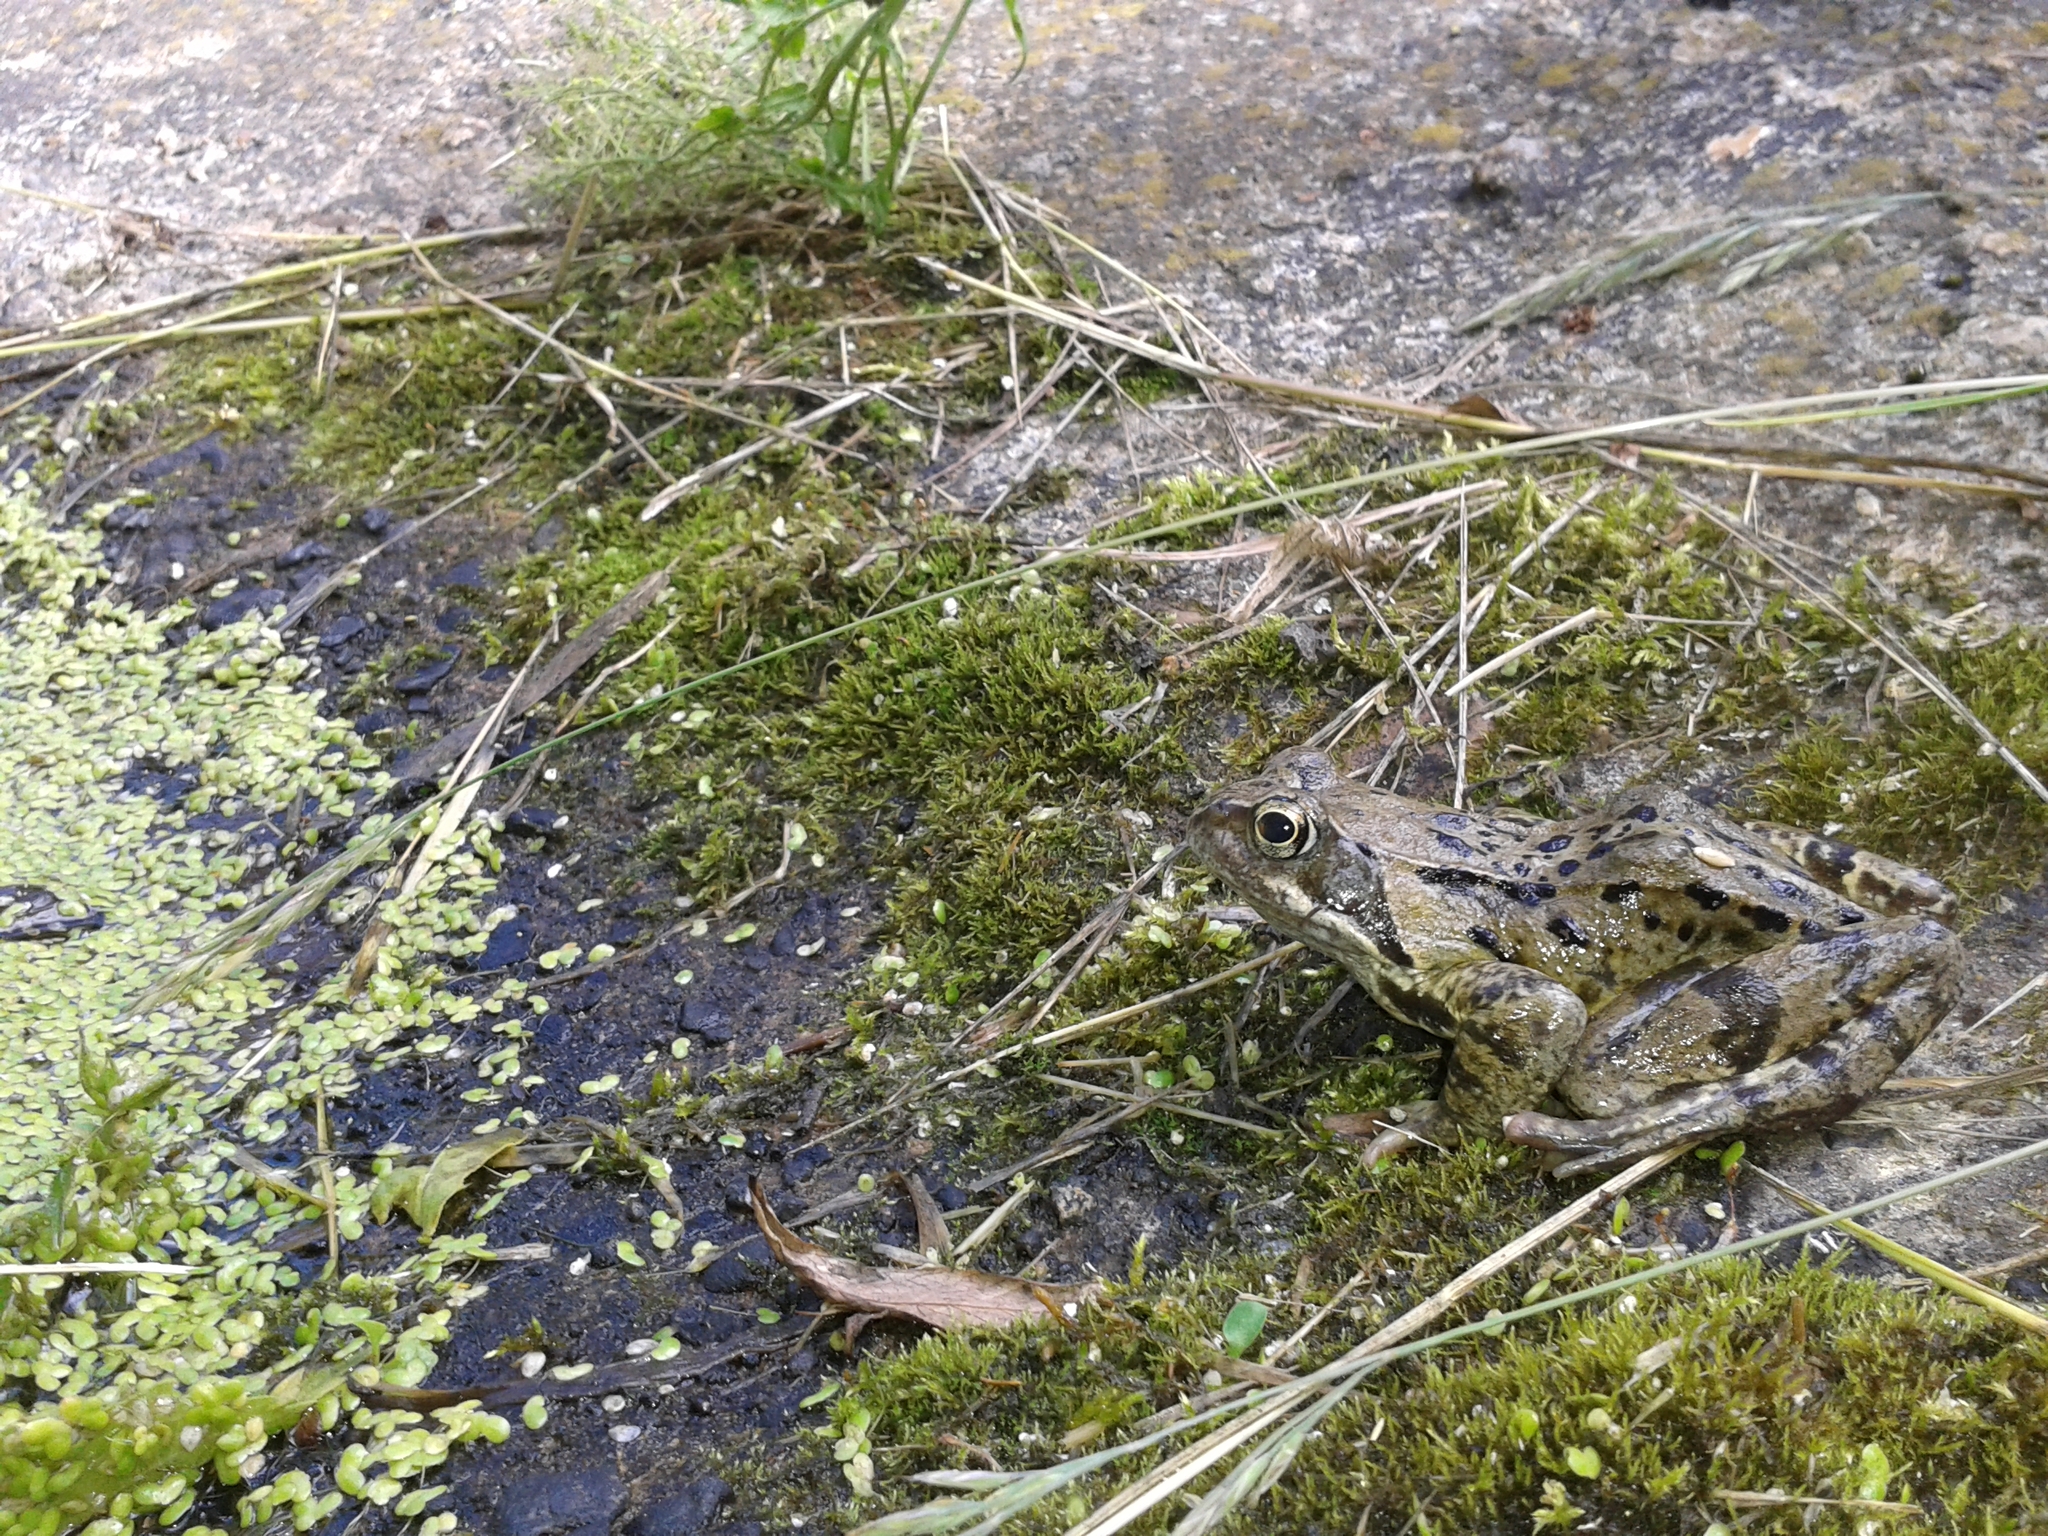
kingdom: Animalia
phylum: Chordata
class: Amphibia
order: Anura
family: Ranidae
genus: Rana
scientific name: Rana temporaria
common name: Common frog
